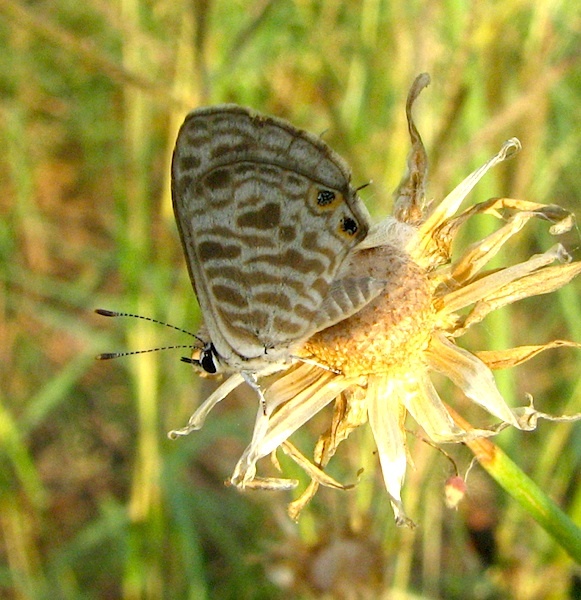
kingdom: Animalia
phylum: Arthropoda
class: Insecta
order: Lepidoptera
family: Lycaenidae
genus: Leptotes
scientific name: Leptotes plinius
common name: Zebra blue
